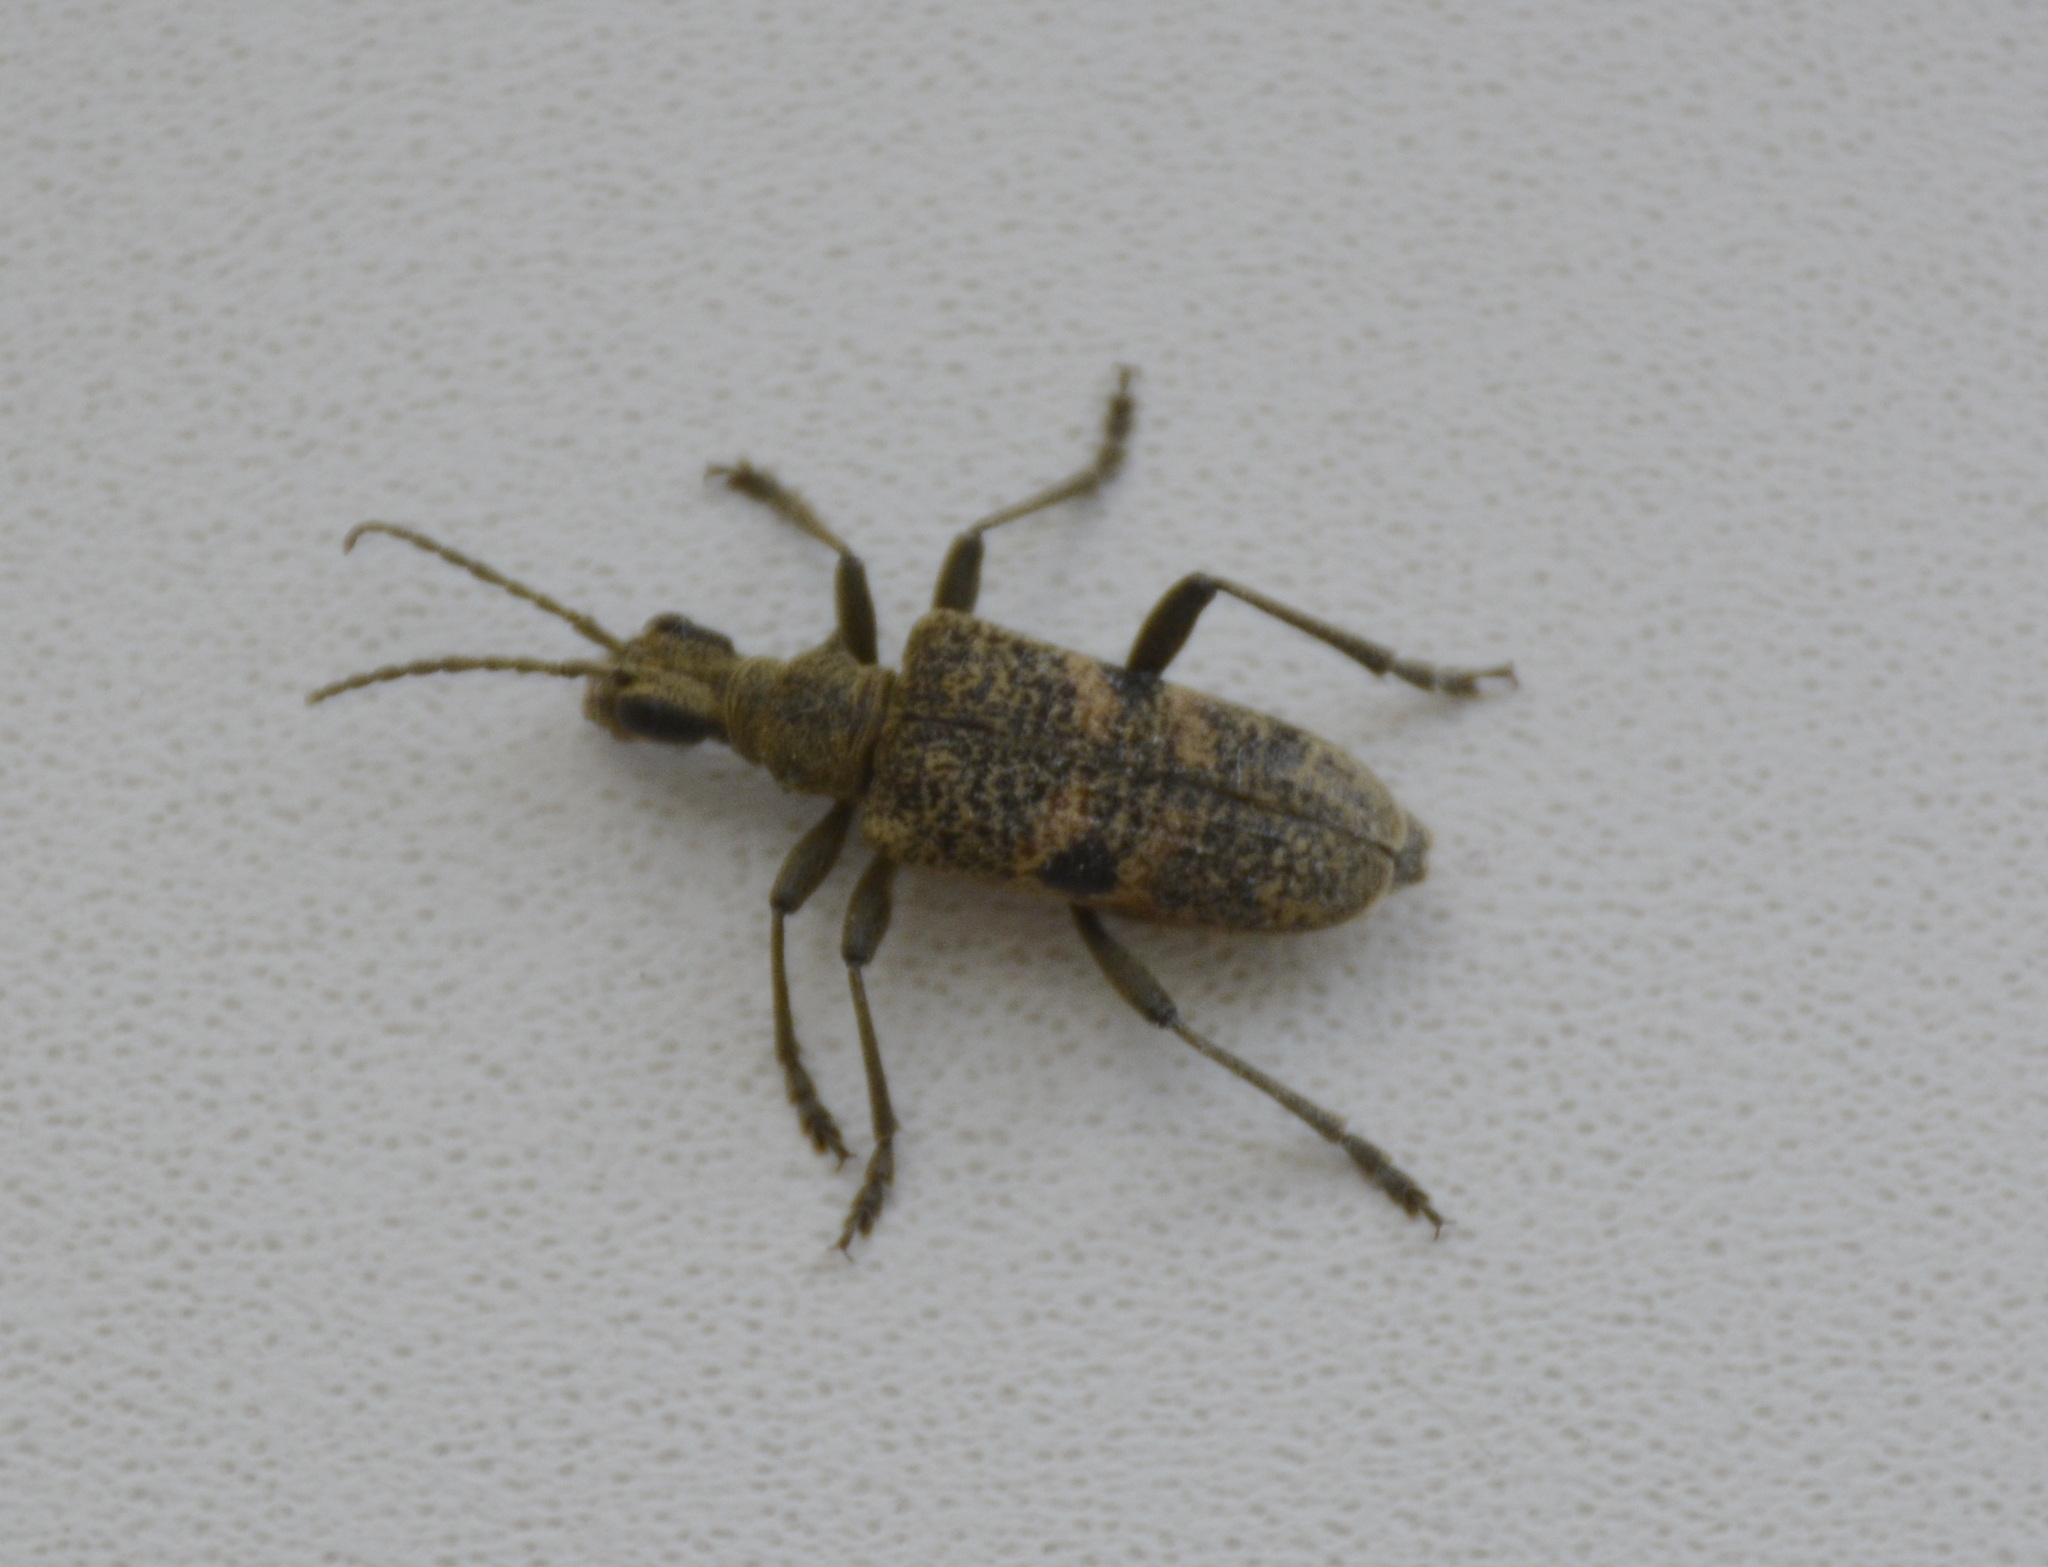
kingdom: Animalia
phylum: Arthropoda
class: Insecta
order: Coleoptera
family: Cerambycidae
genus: Rhagium
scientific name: Rhagium mordax
